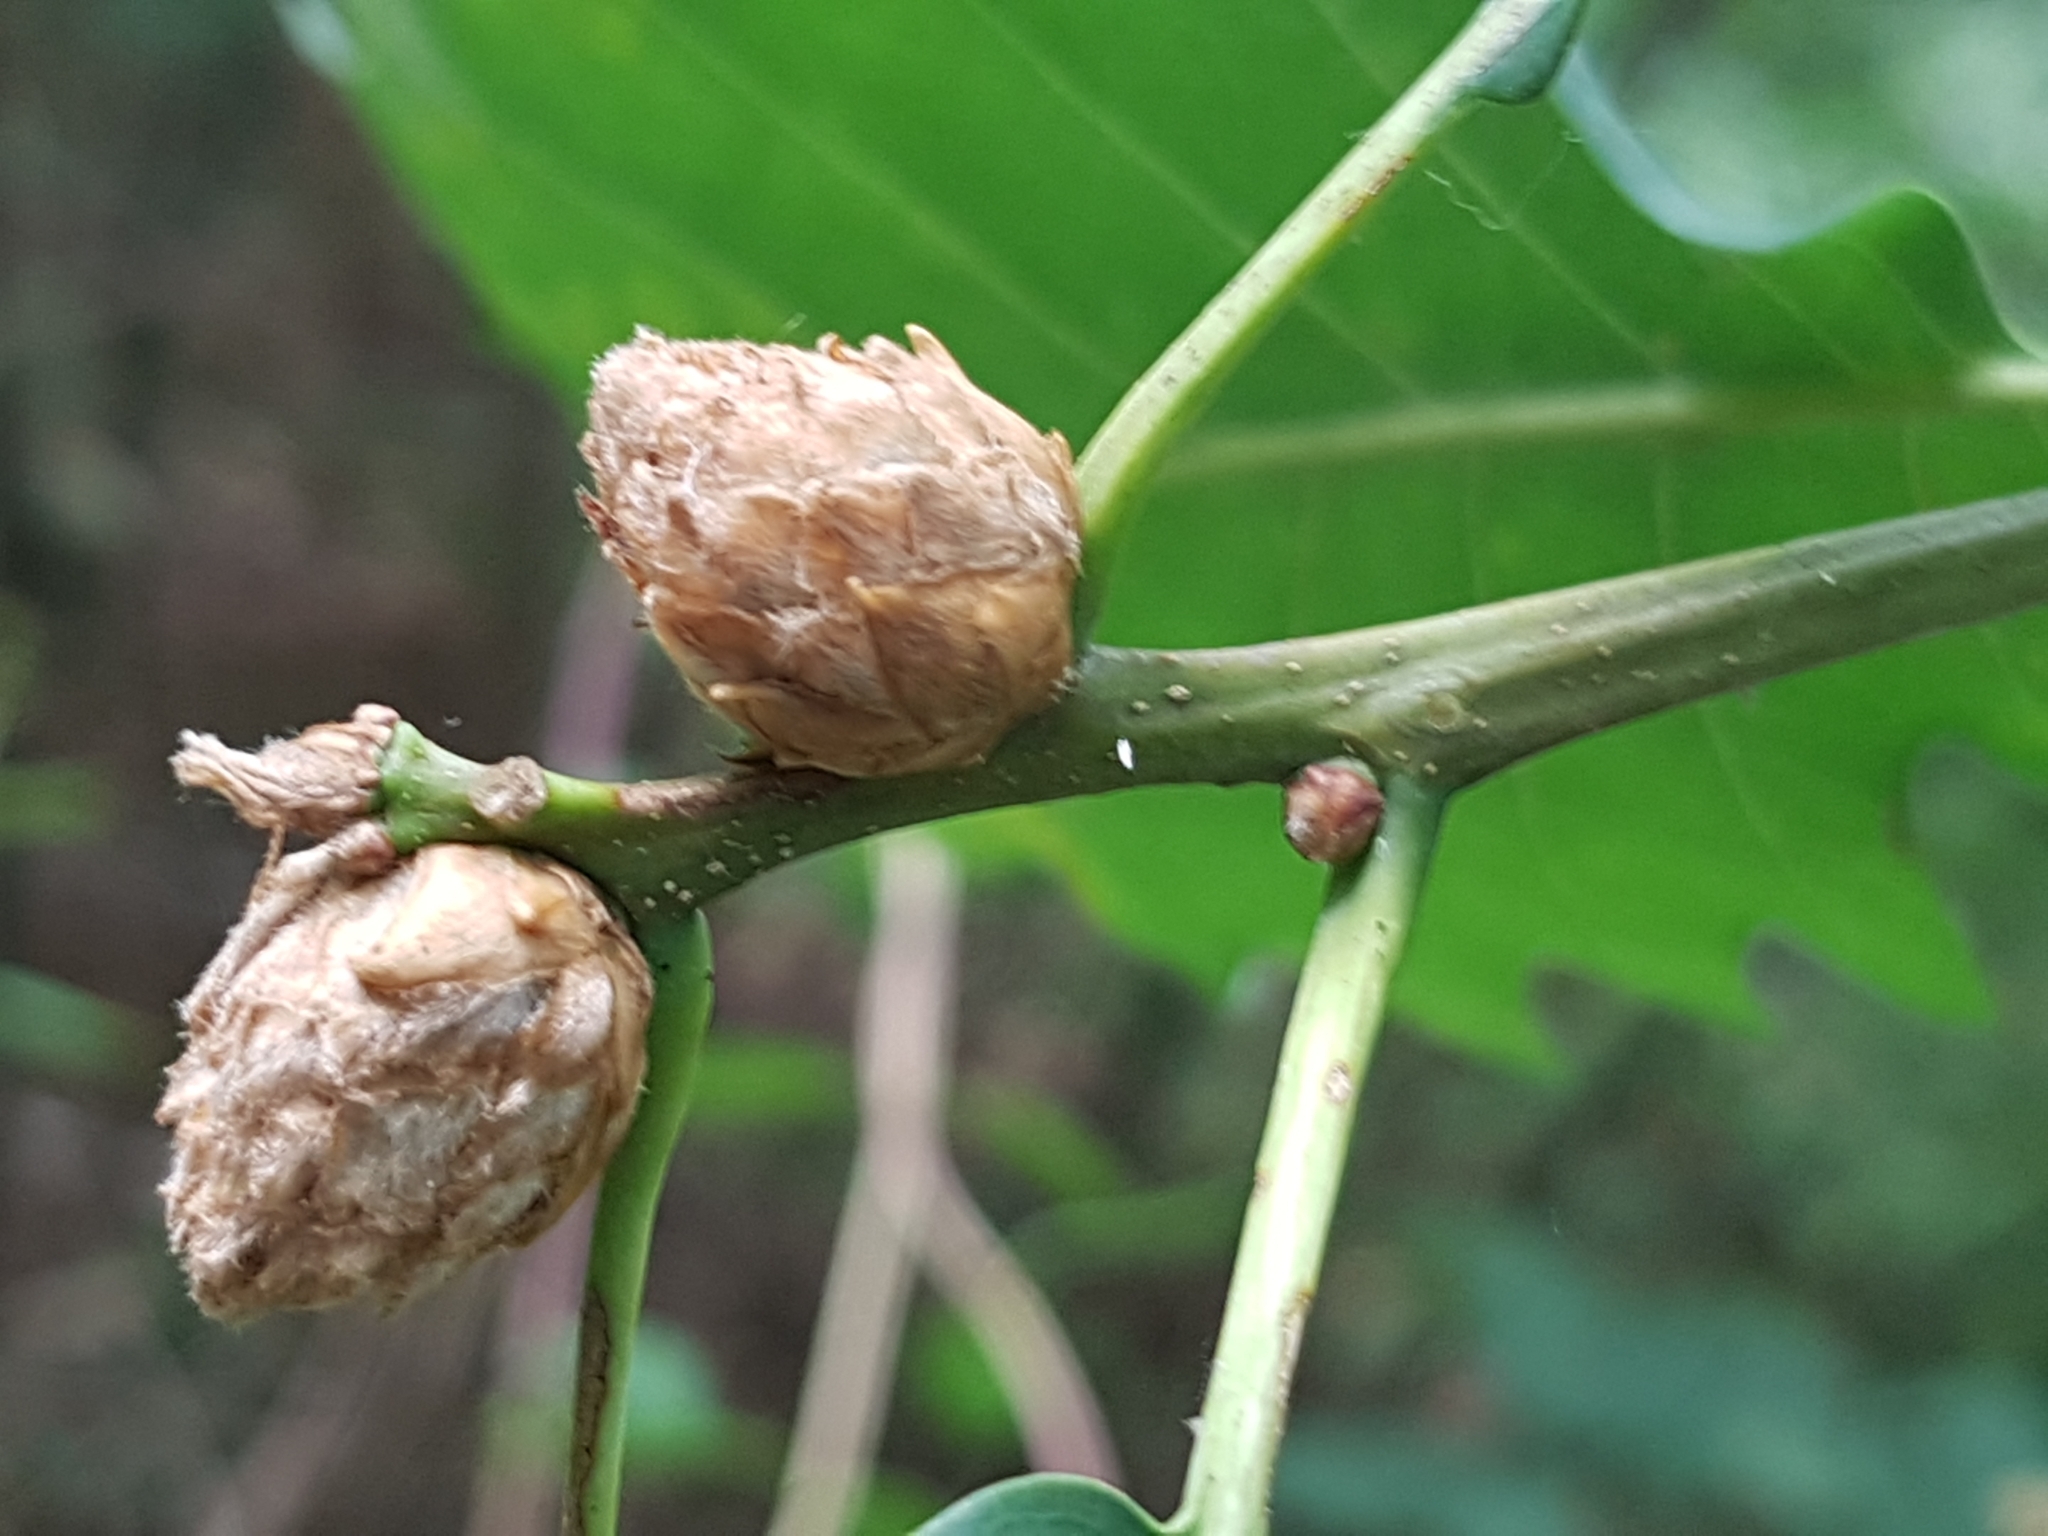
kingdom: Animalia
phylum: Arthropoda
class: Insecta
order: Hymenoptera
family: Cynipidae
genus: Andricus
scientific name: Andricus foecundatrix
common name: Artichoke gall
